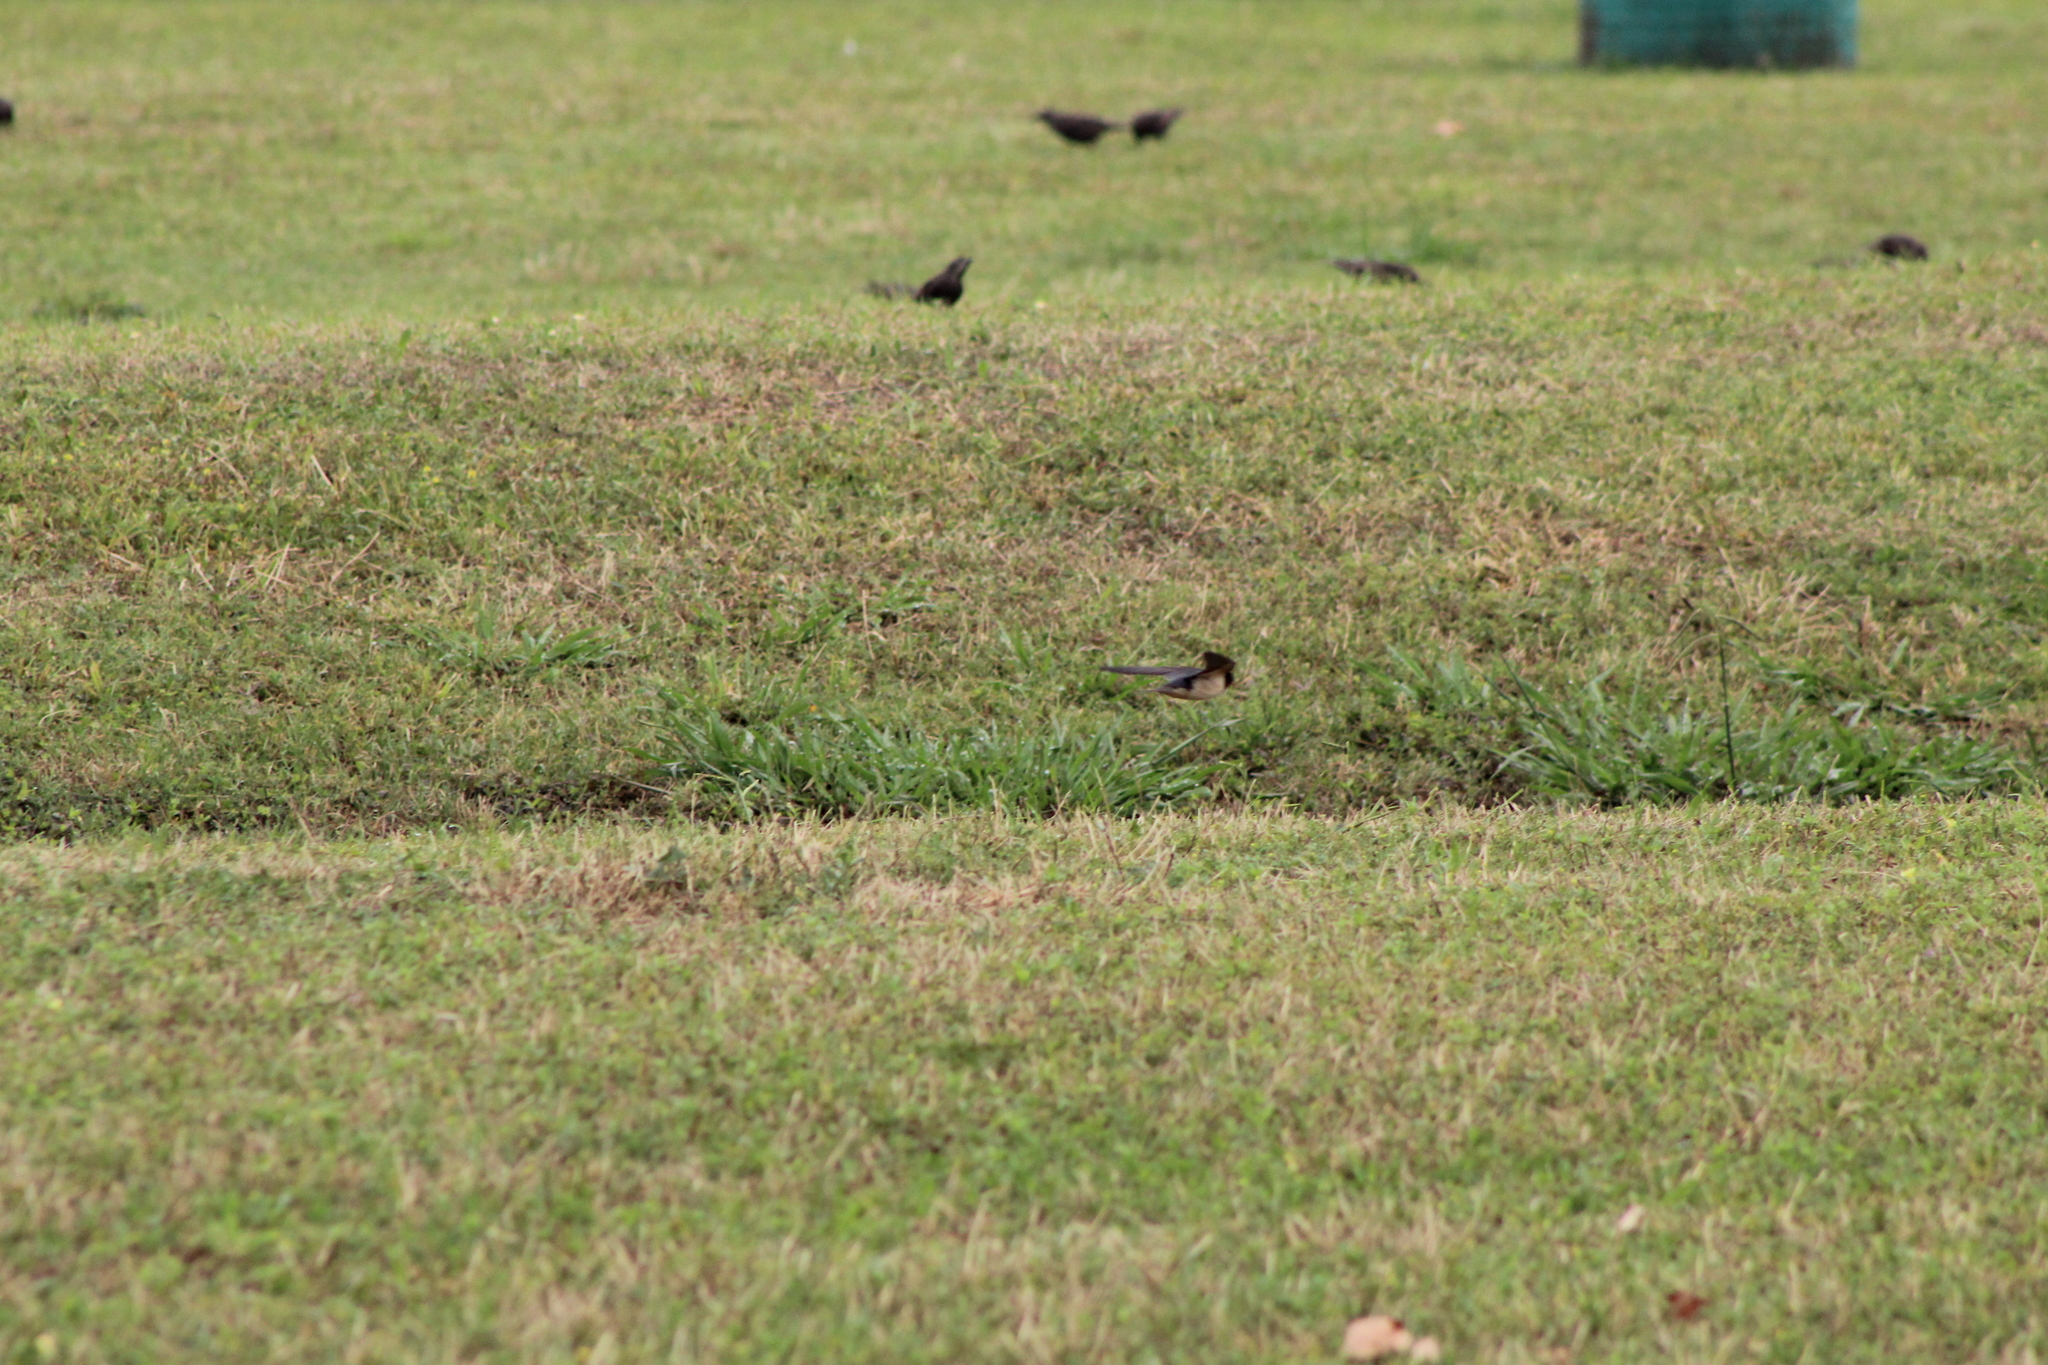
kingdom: Animalia
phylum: Chordata
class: Aves
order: Passeriformes
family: Hirundinidae
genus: Hirundo
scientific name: Hirundo rustica
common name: Barn swallow
